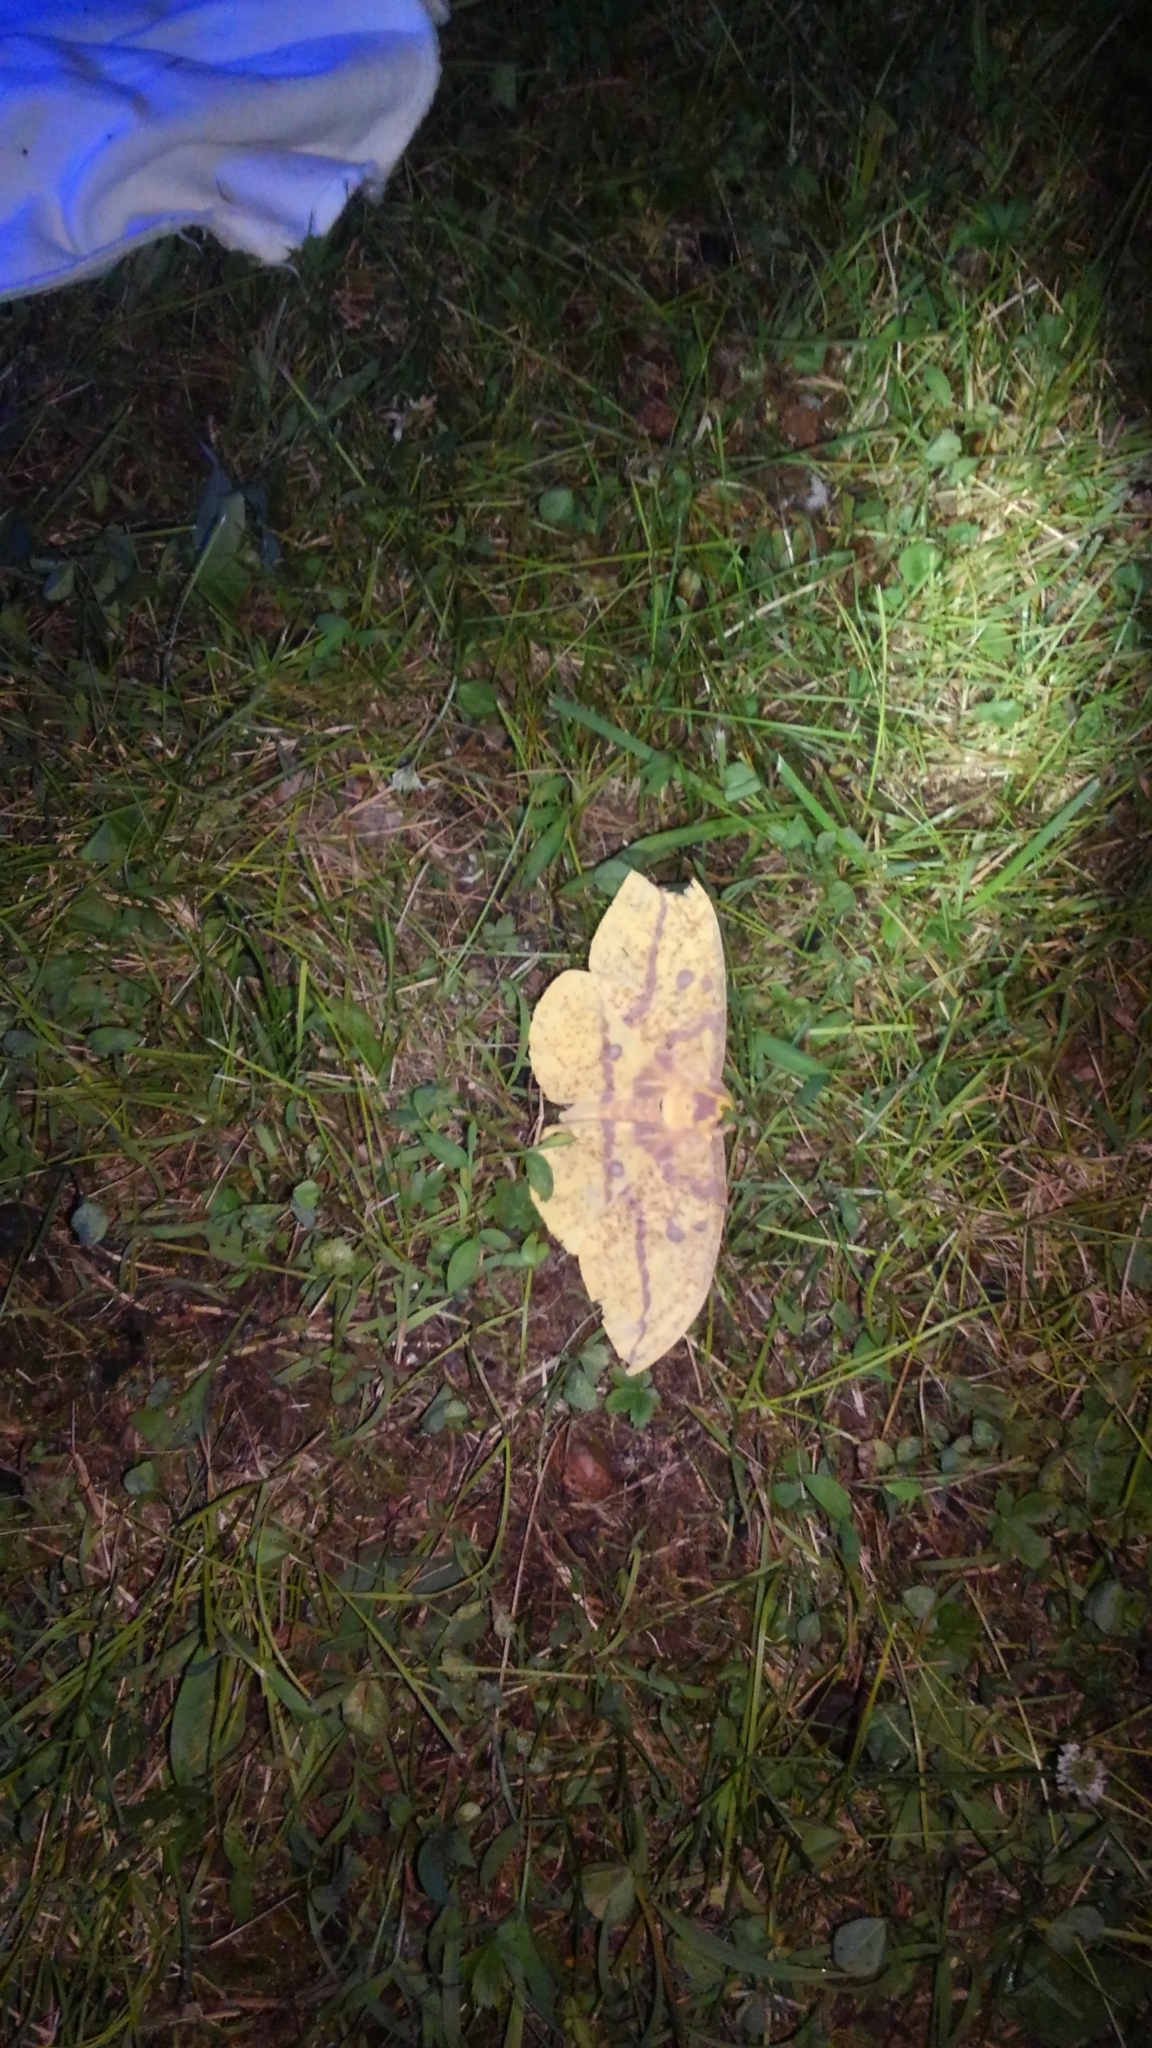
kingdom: Animalia
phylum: Arthropoda
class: Insecta
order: Lepidoptera
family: Saturniidae
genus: Eacles
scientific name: Eacles imperialis
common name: Imperial moth
